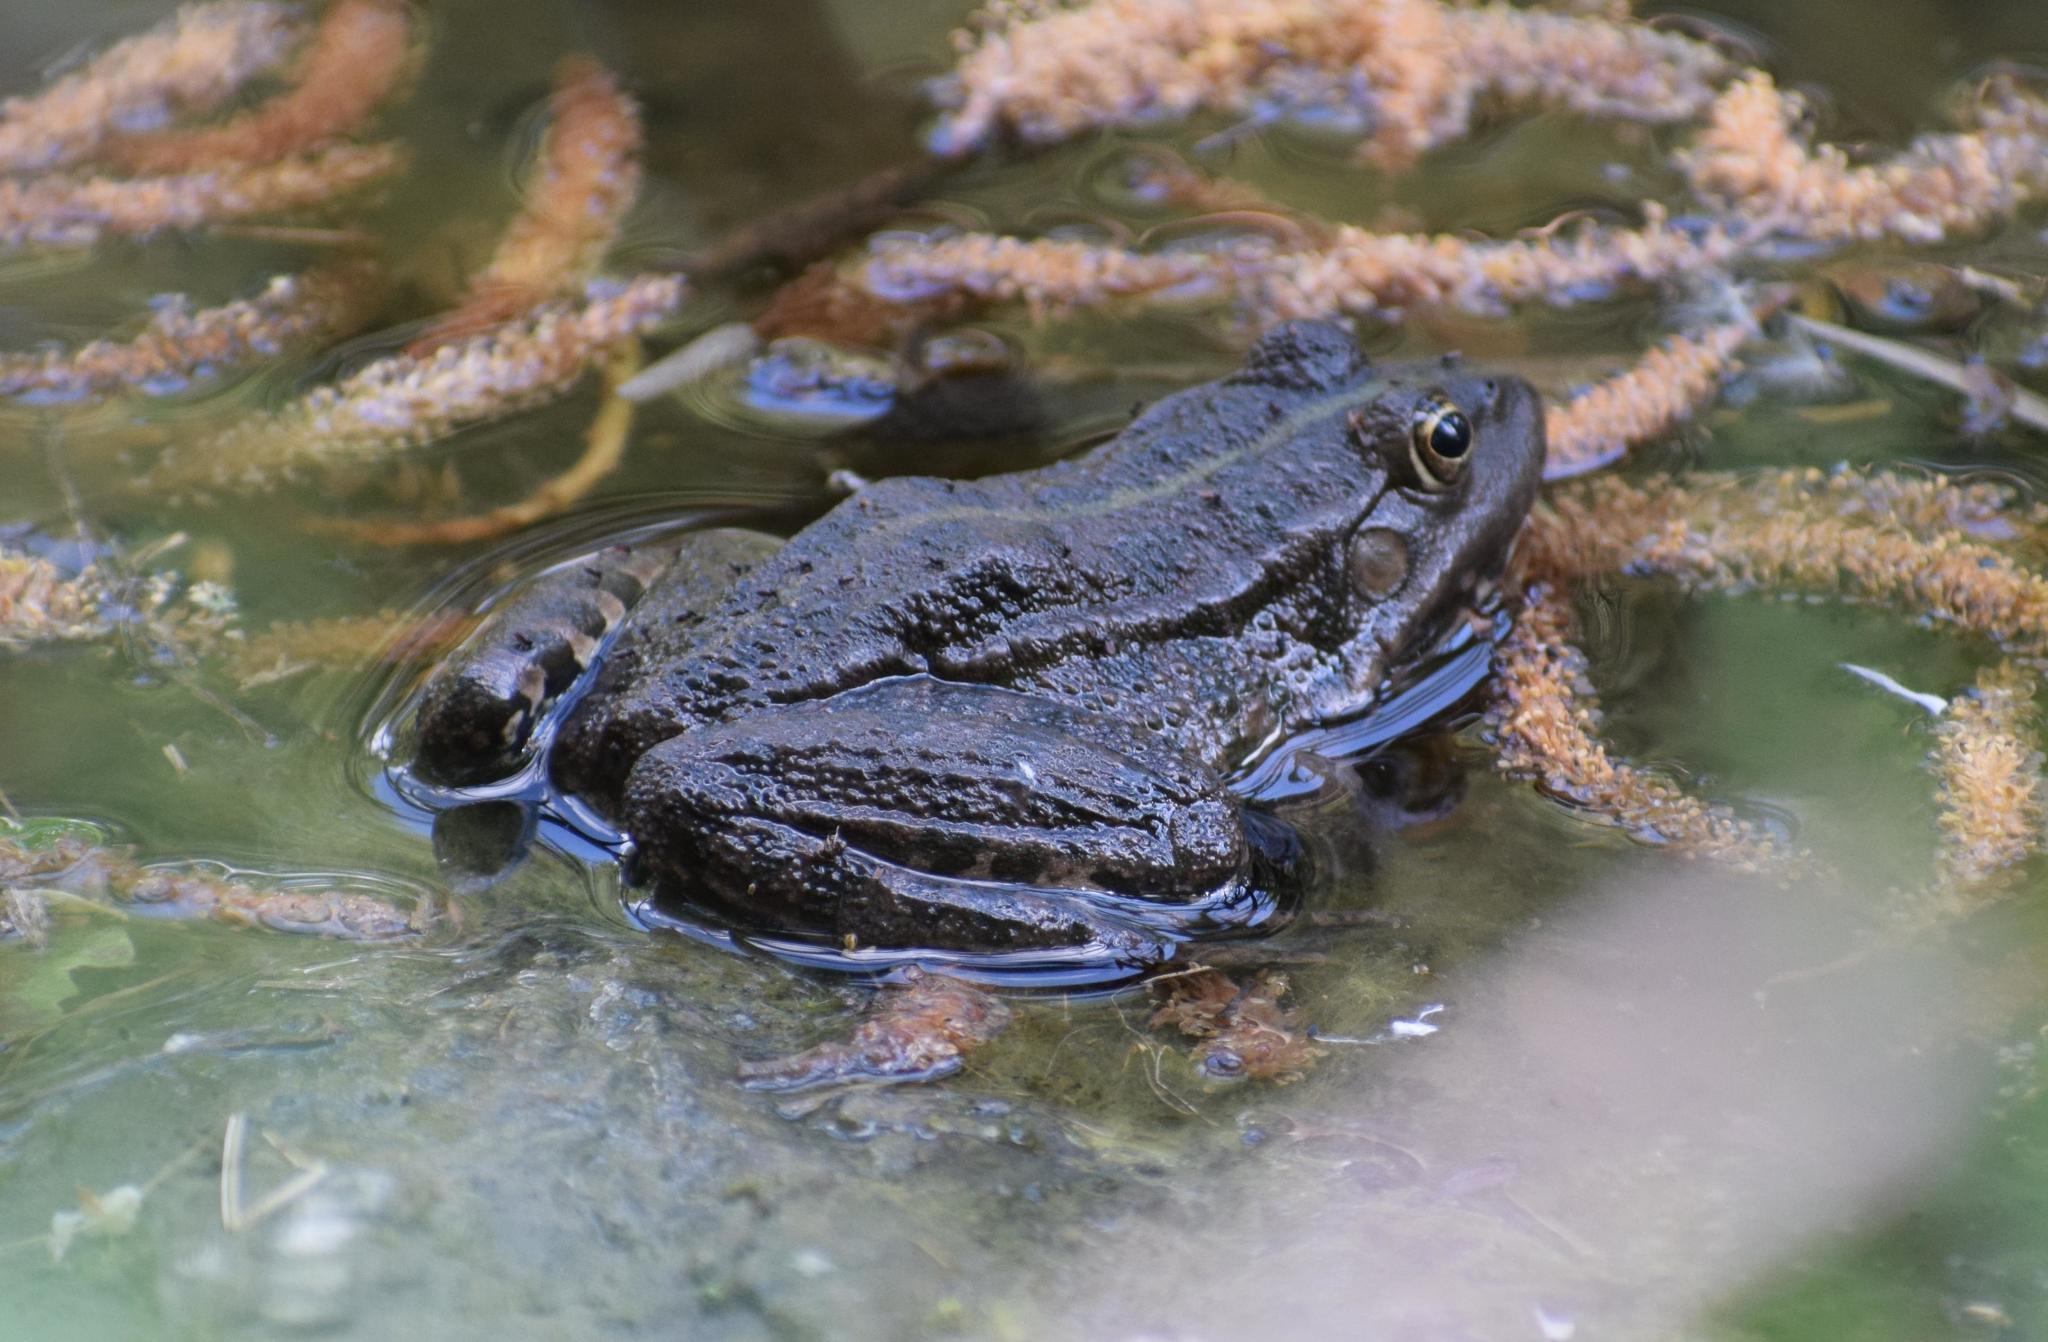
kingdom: Animalia
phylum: Chordata
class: Amphibia
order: Anura
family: Ranidae
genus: Pelophylax
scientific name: Pelophylax
